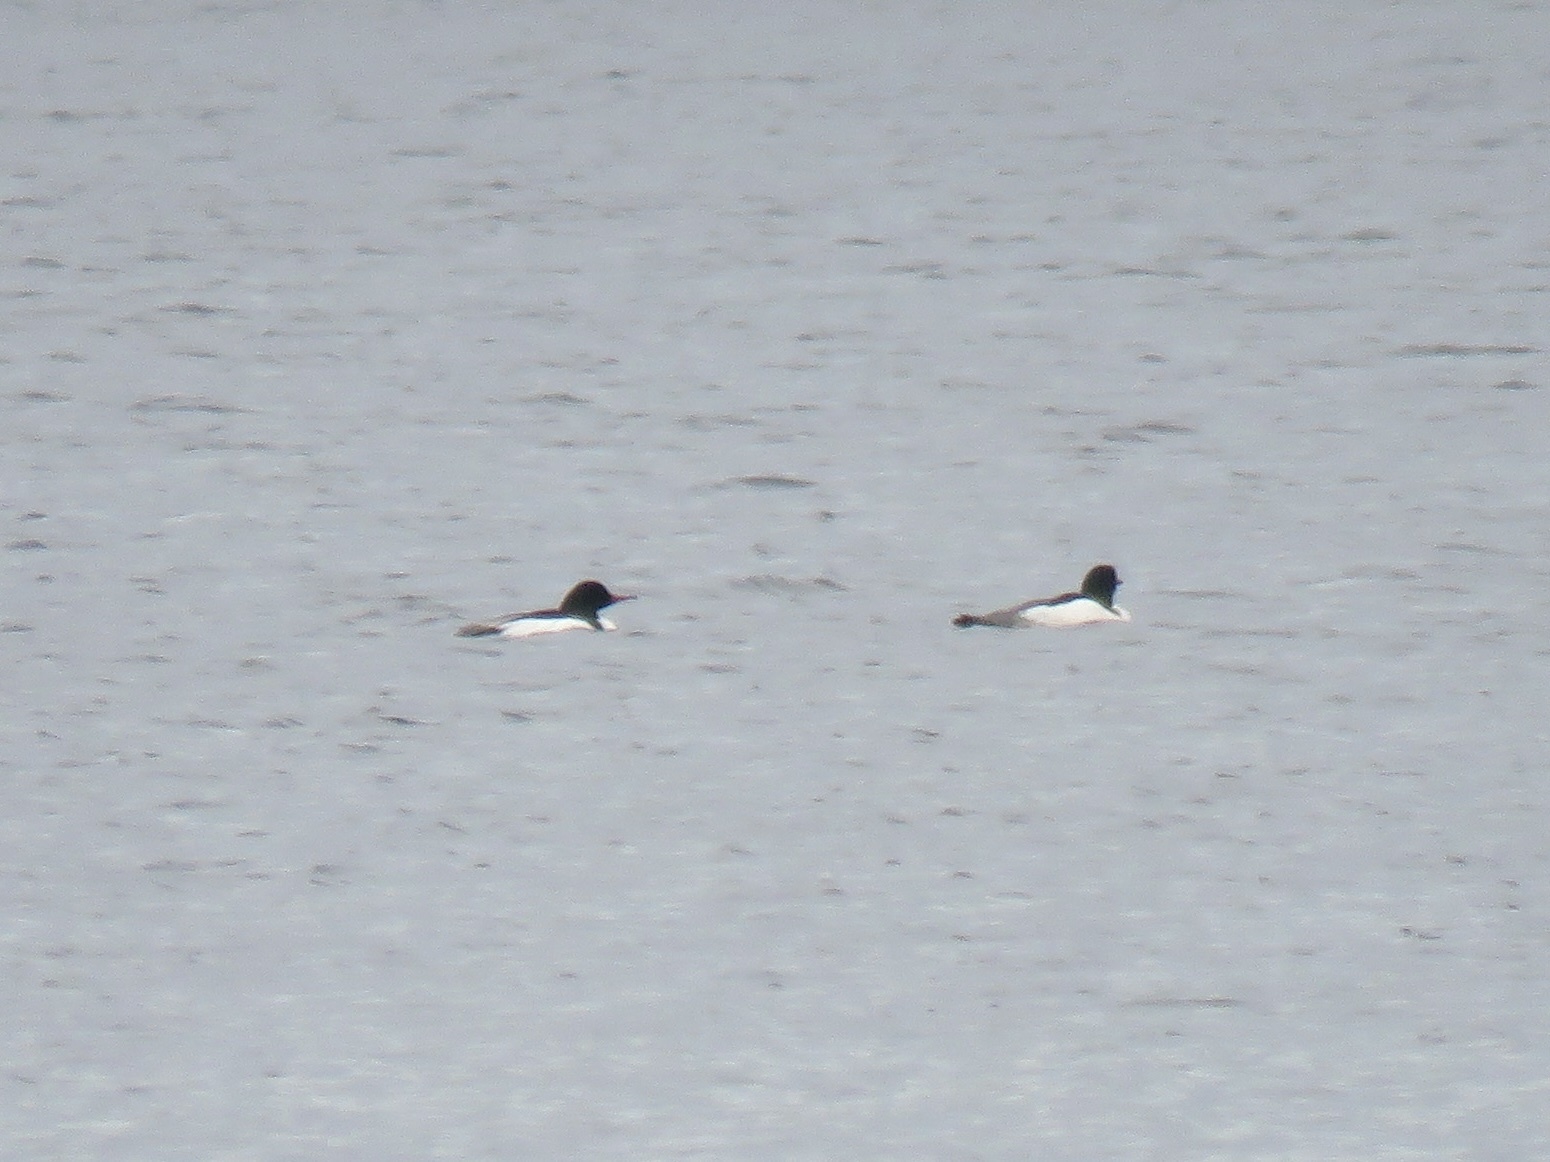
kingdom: Animalia
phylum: Chordata
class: Aves
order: Anseriformes
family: Anatidae
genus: Mergus
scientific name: Mergus merganser
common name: Common merganser
